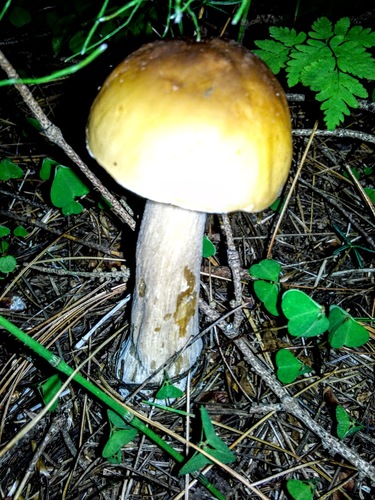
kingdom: Fungi
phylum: Basidiomycota
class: Agaricomycetes
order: Boletales
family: Boletaceae
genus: Boletus
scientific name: Boletus edulis
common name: Cep
